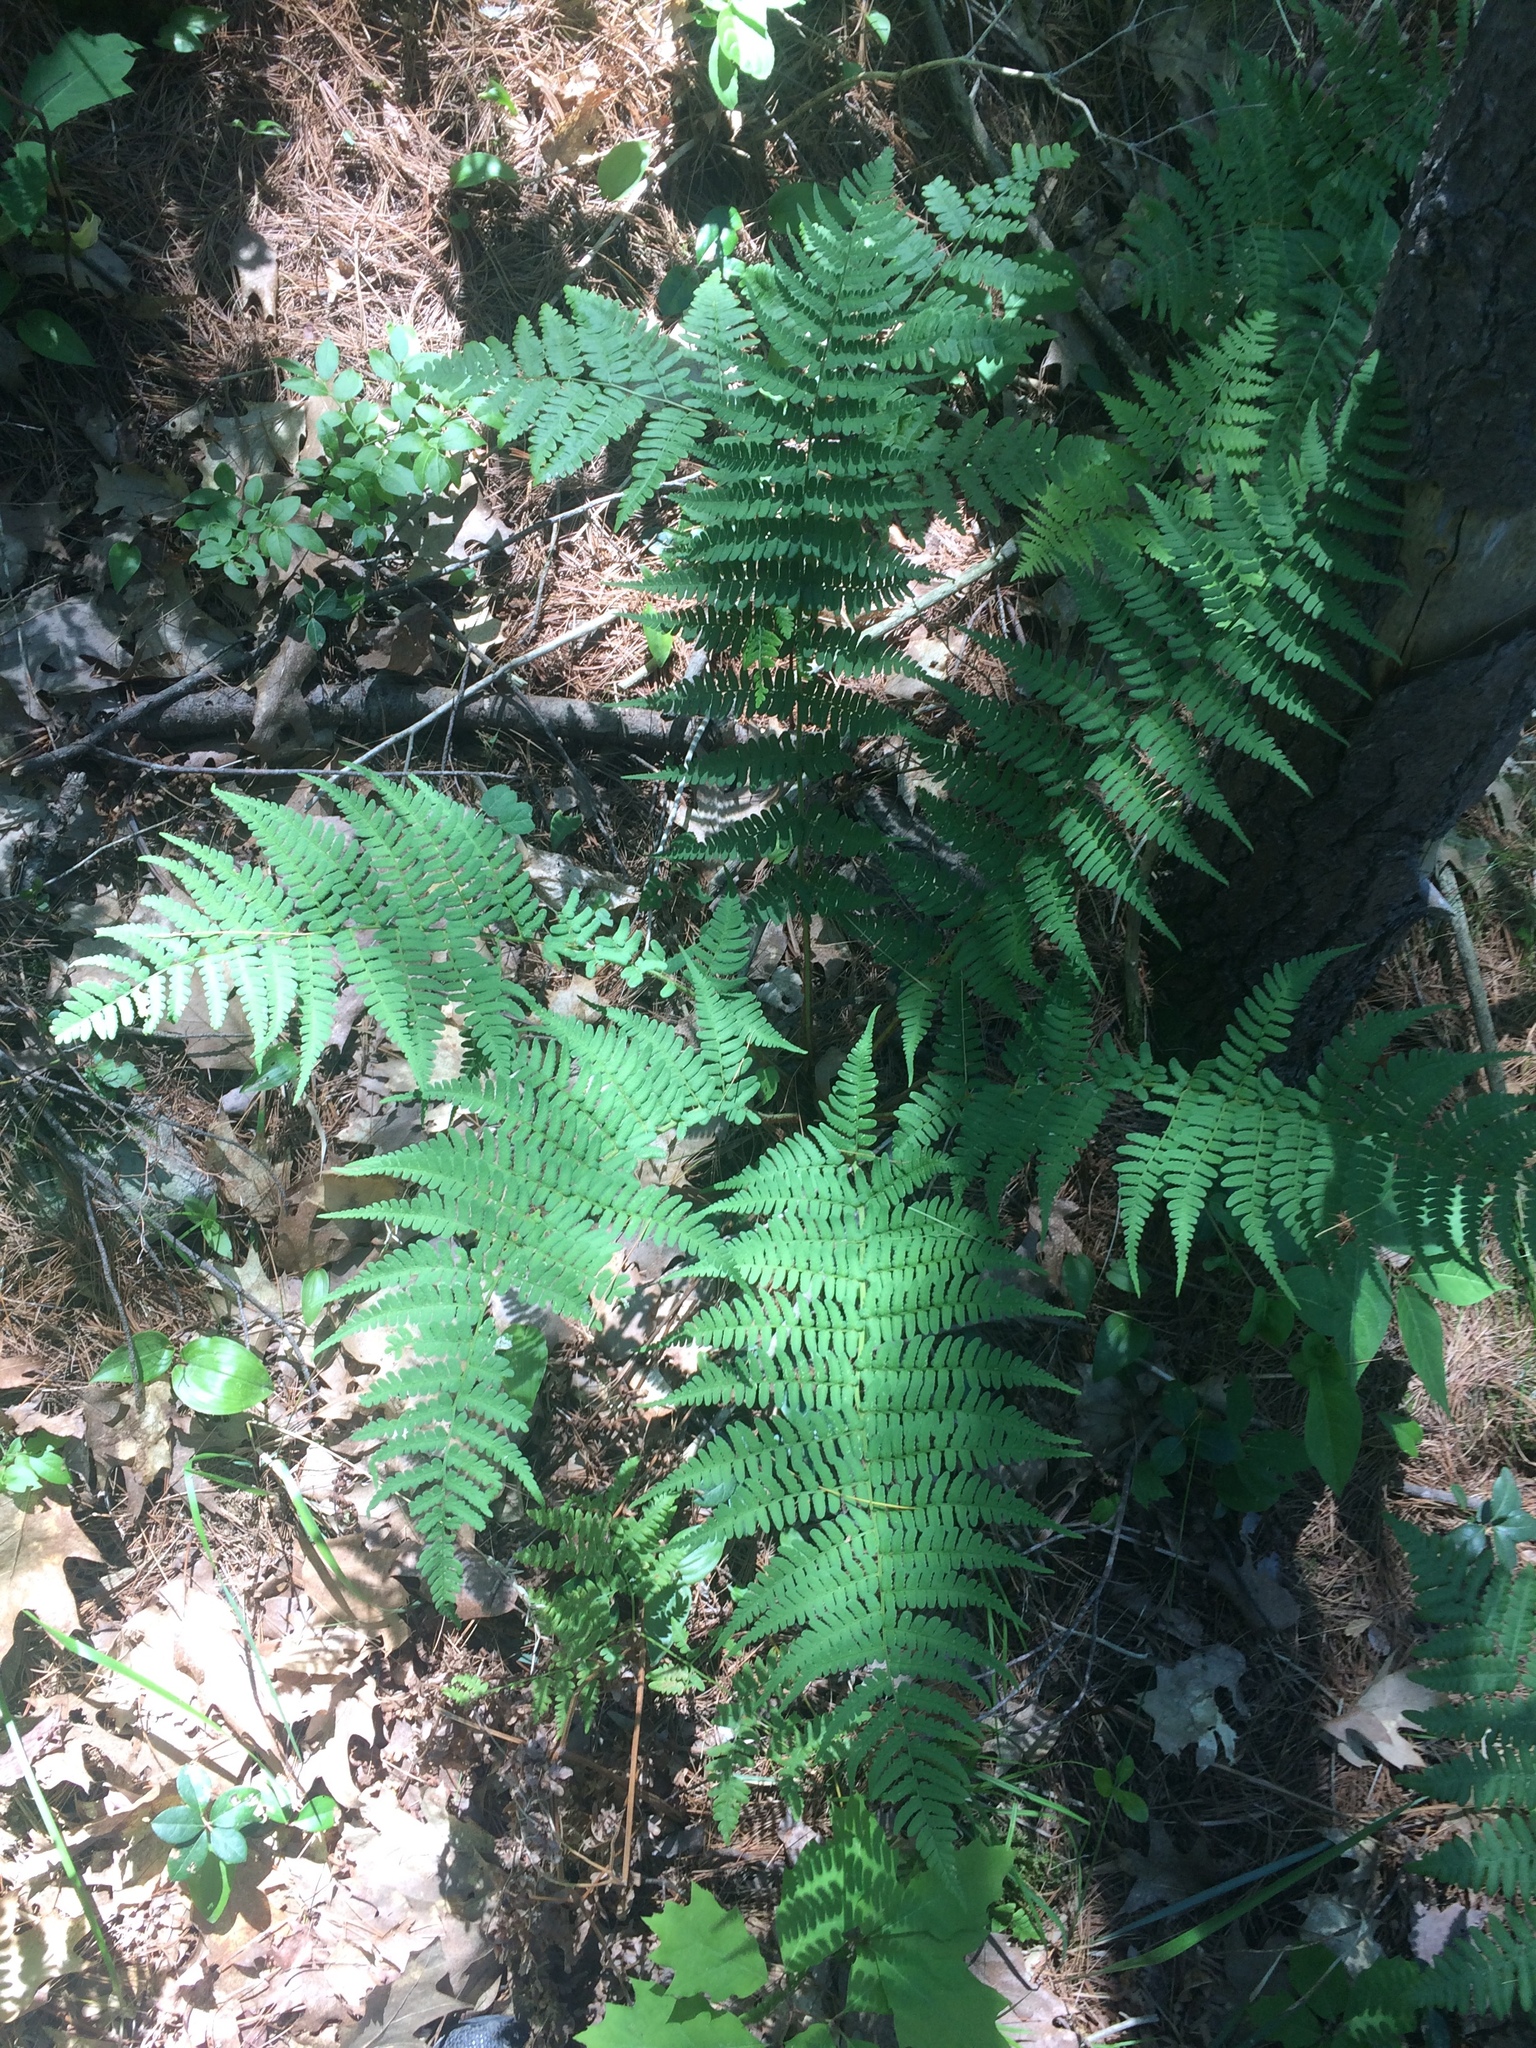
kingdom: Plantae
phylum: Tracheophyta
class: Polypodiopsida
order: Polypodiales
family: Dryopteridaceae
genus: Dryopteris
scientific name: Dryopteris marginalis
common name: Marginal wood fern
